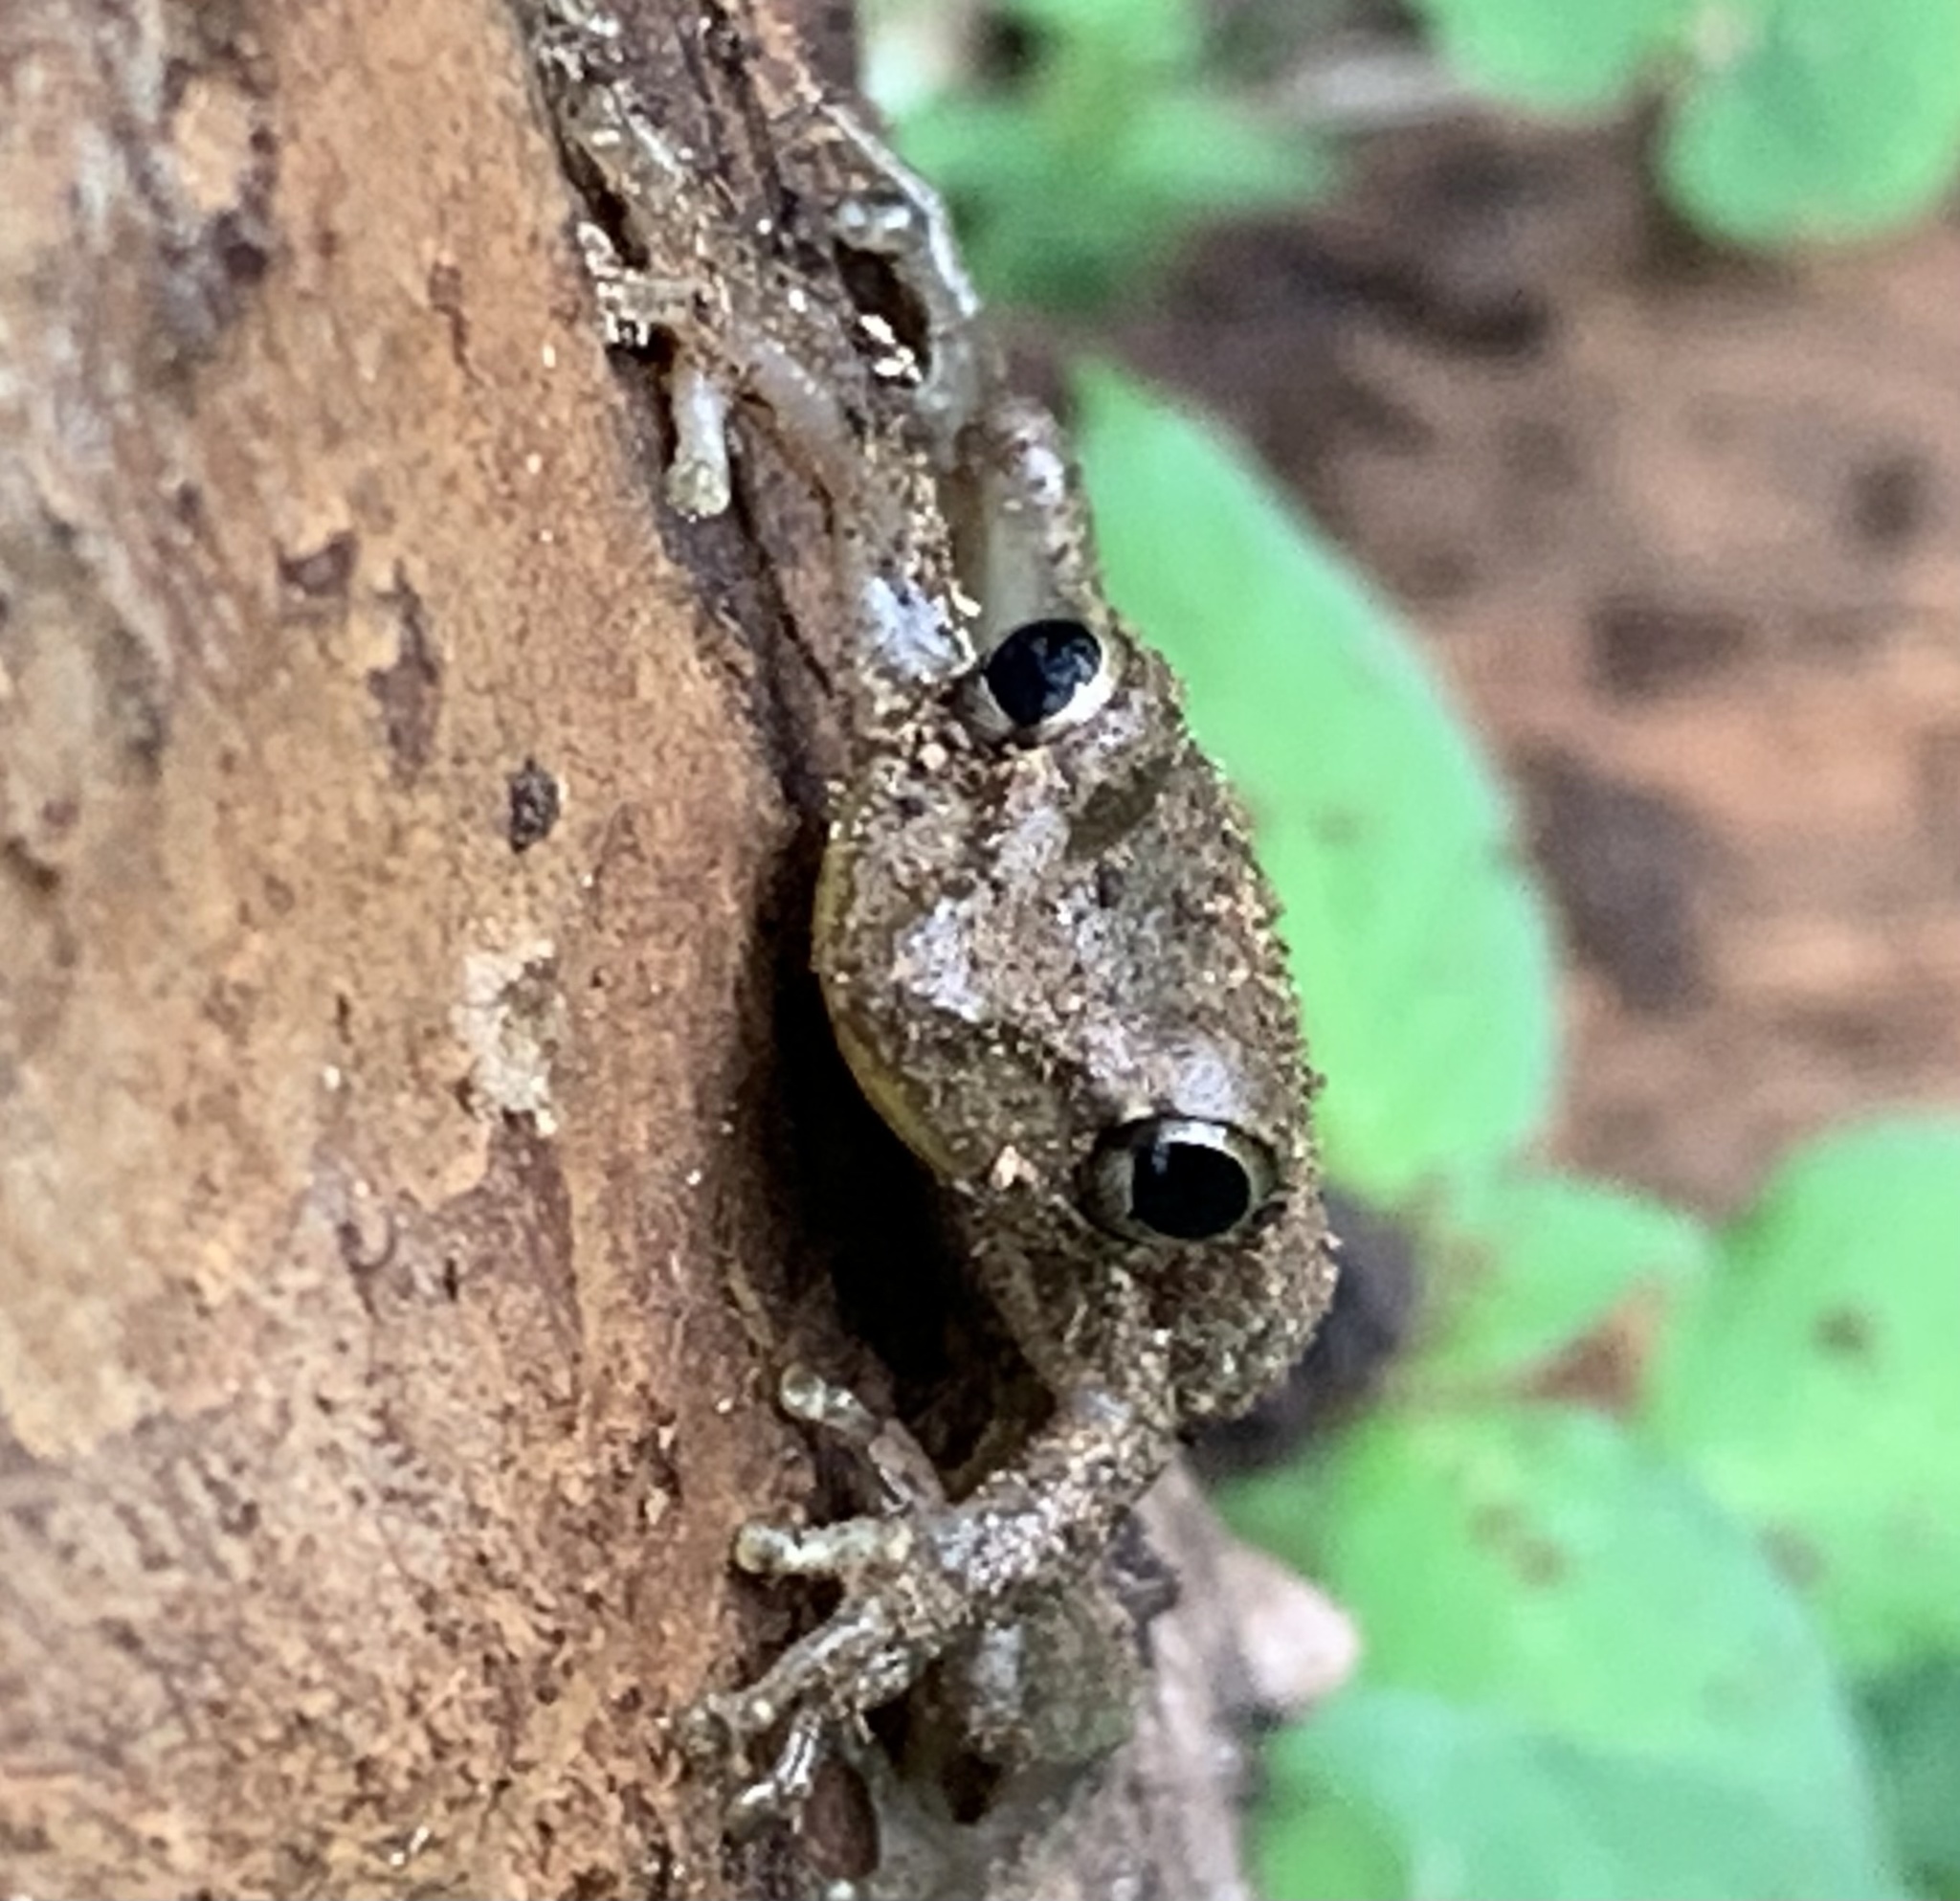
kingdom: Animalia
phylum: Chordata
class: Amphibia
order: Anura
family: Hylidae
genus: Osteopilus
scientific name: Osteopilus septentrionalis
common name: Cuban treefrog
